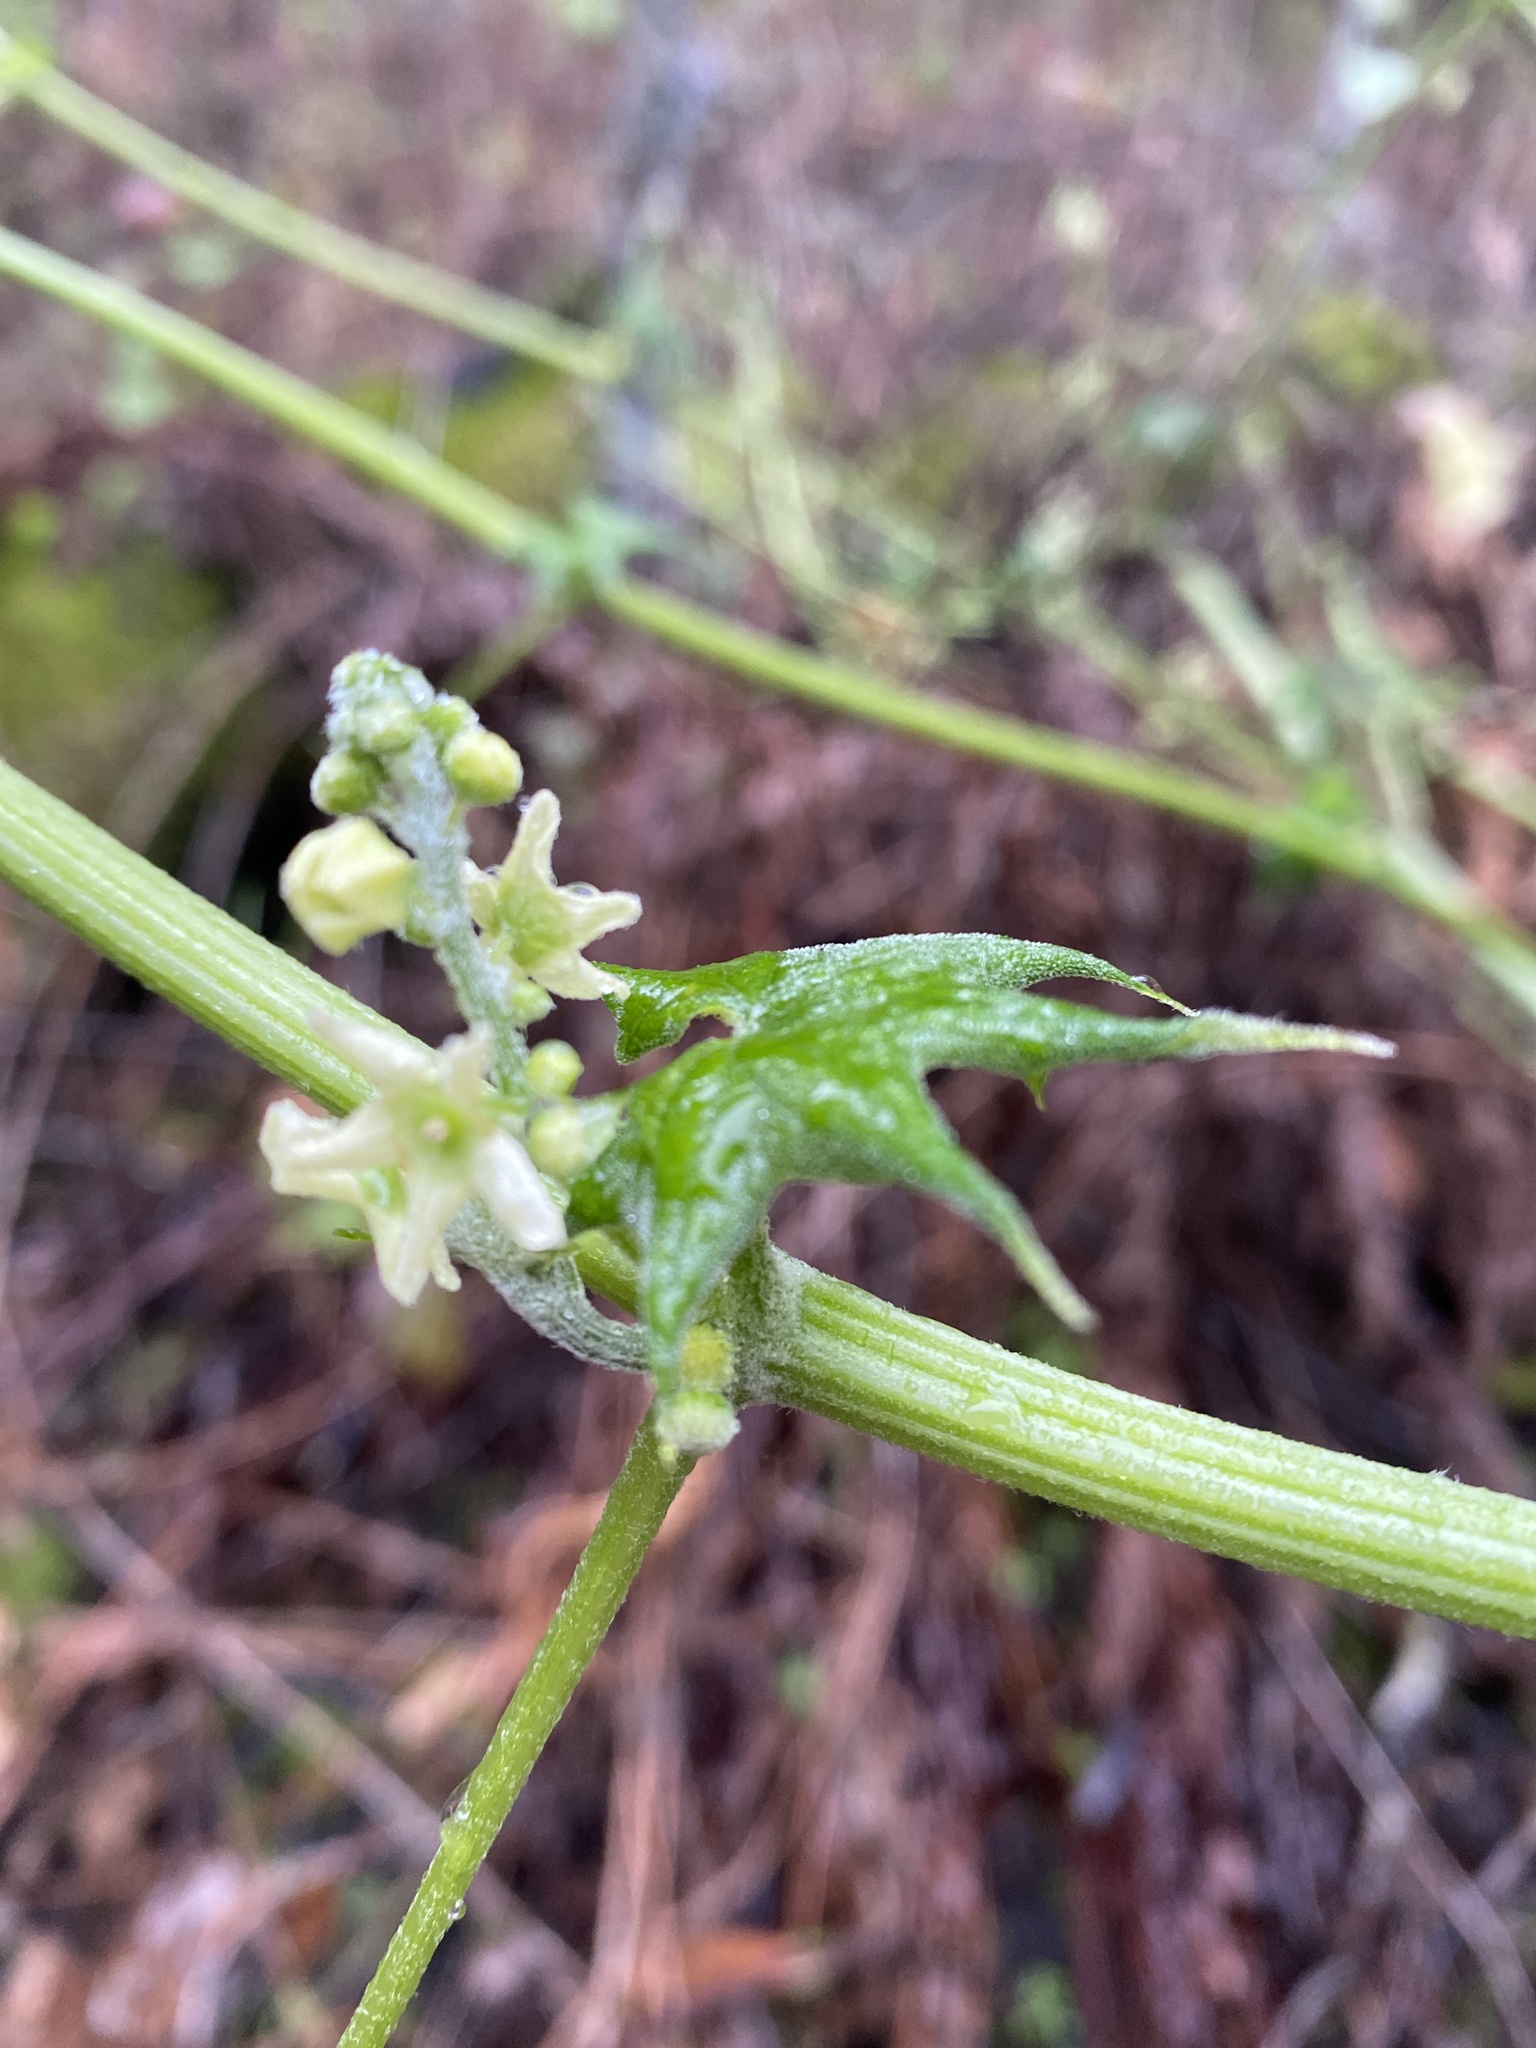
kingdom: Plantae
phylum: Tracheophyta
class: Magnoliopsida
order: Cucurbitales
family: Cucurbitaceae
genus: Marah
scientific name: Marah fabacea
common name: California manroot
